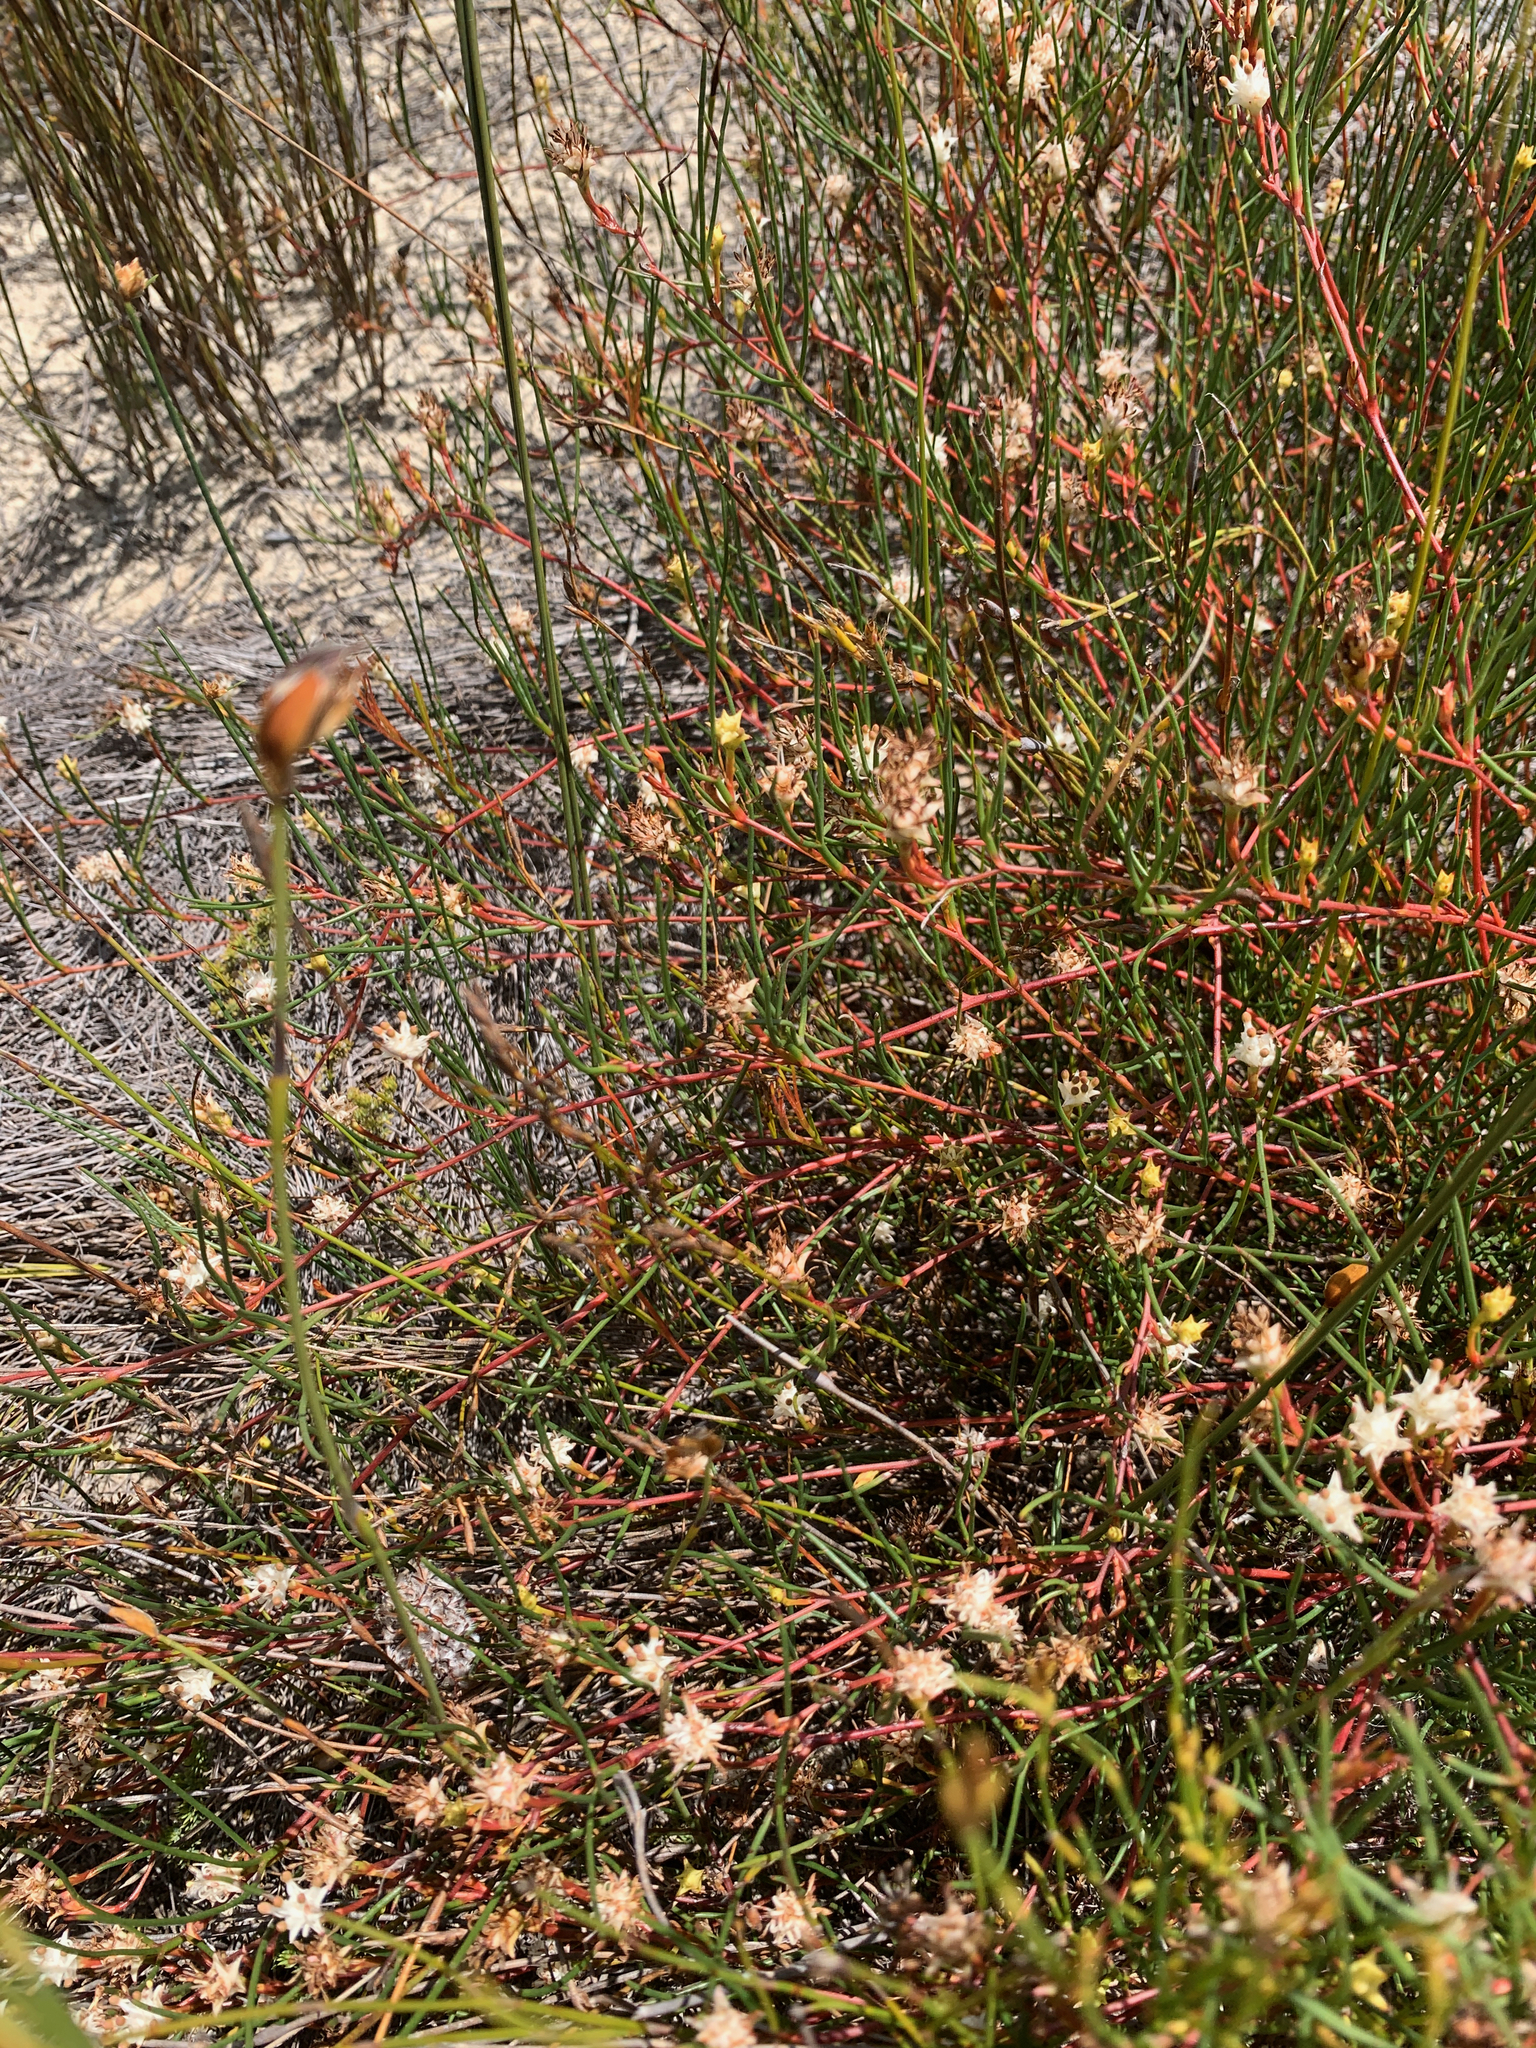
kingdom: Plantae
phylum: Tracheophyta
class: Magnoliopsida
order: Proteales
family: Proteaceae
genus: Serruria
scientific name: Serruria flagellifolia
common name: Houwhoek spiderhead
